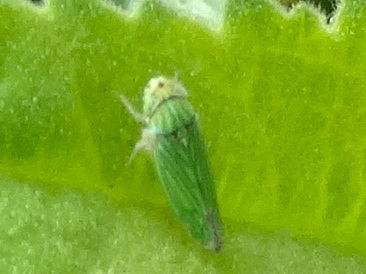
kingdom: Animalia
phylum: Arthropoda
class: Insecta
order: Hemiptera
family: Cicadellidae
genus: Graphocephala
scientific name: Graphocephala cythura
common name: Leafhopper
